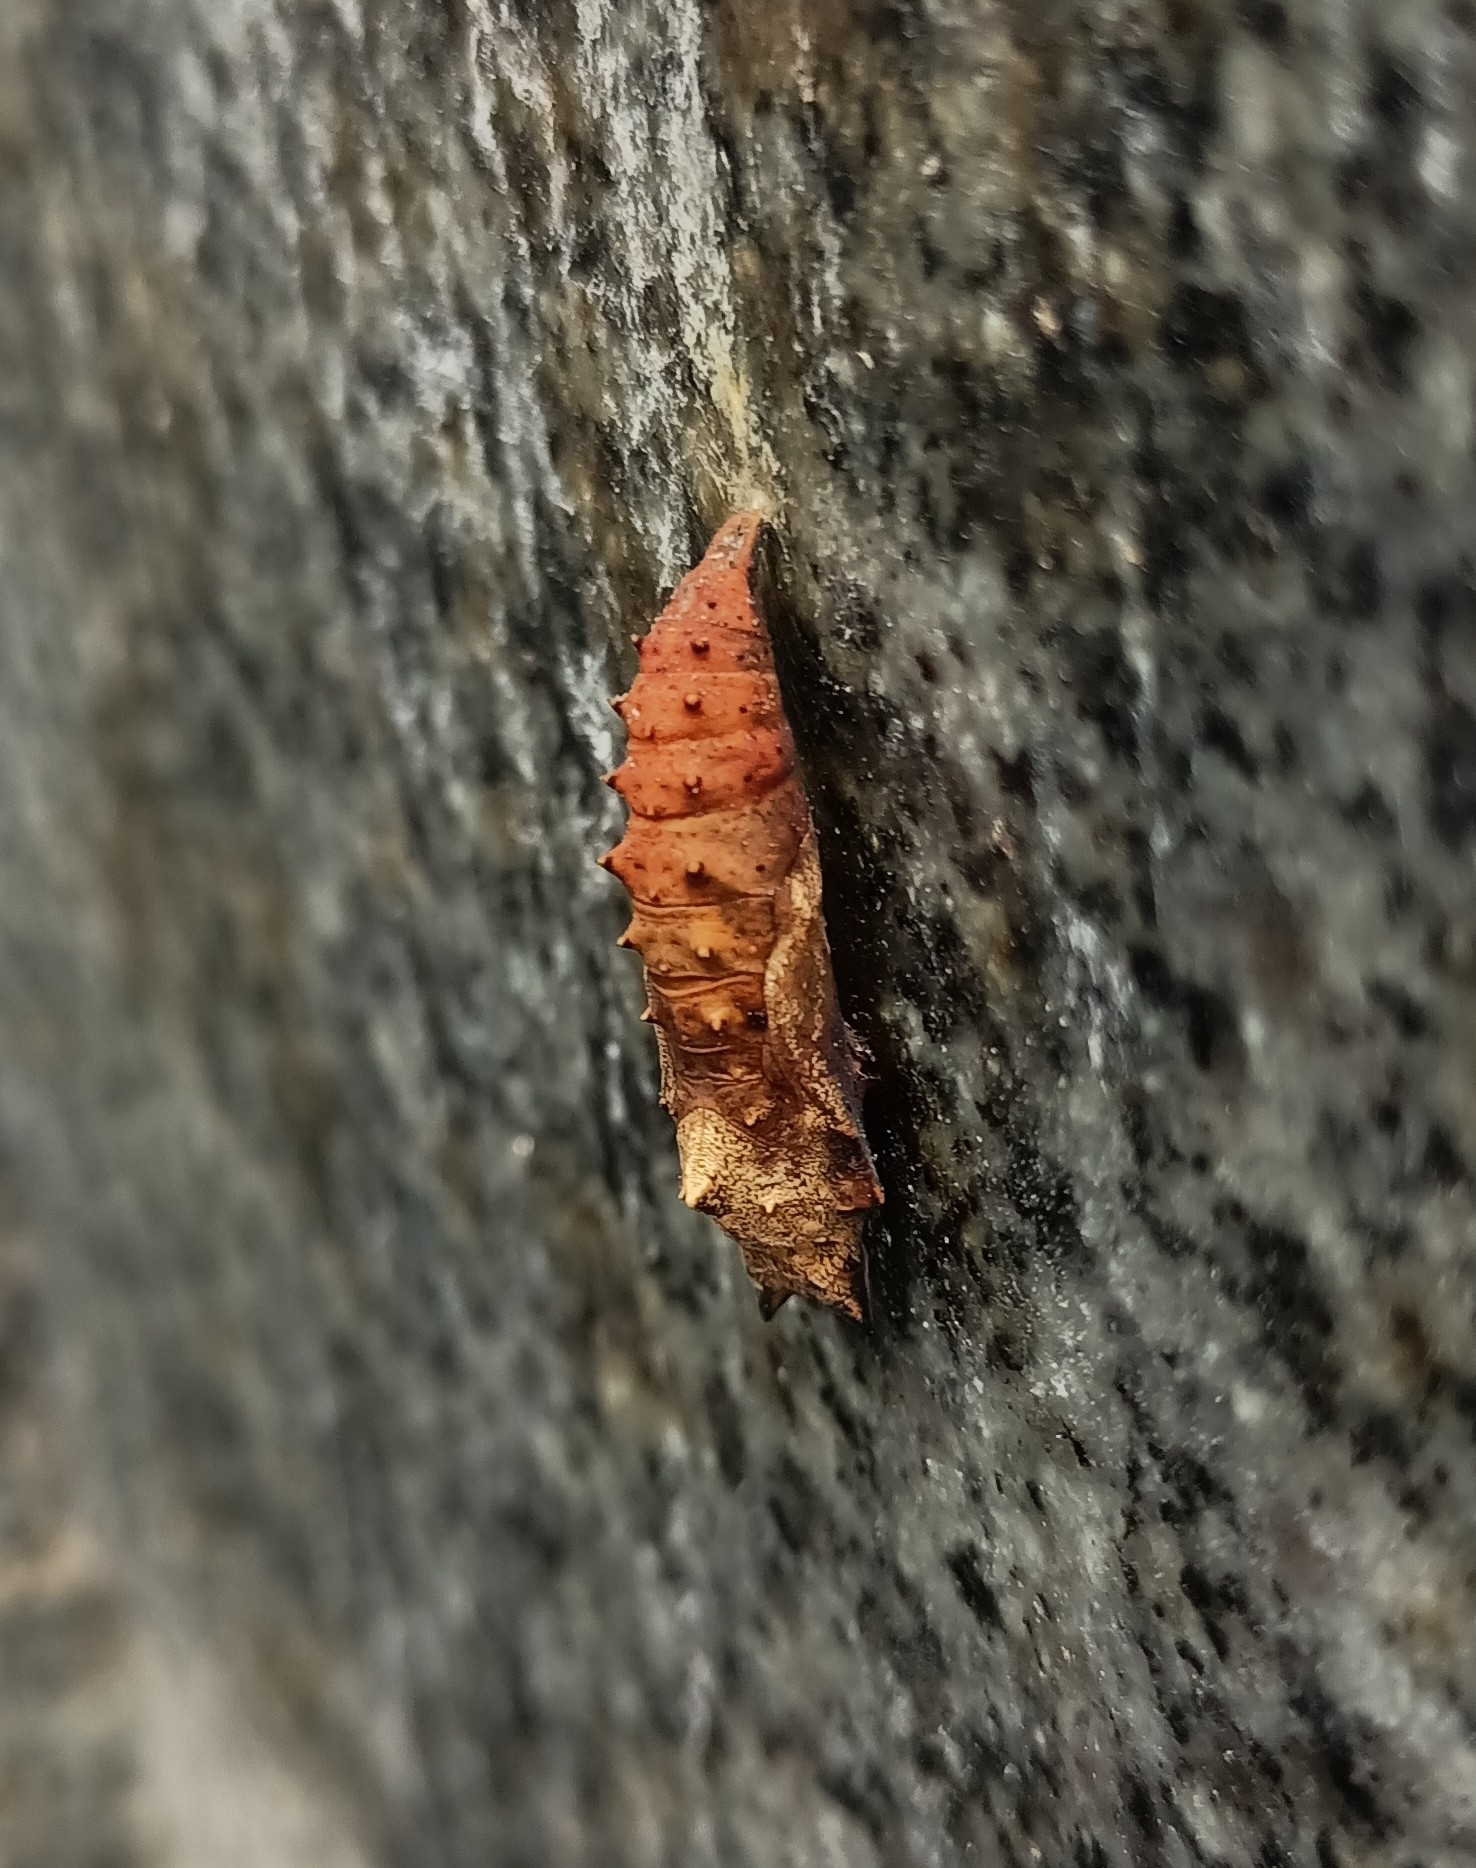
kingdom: Animalia
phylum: Arthropoda
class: Insecta
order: Lepidoptera
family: Nymphalidae
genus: Aglais
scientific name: Aglais urticae
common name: Small tortoiseshell
